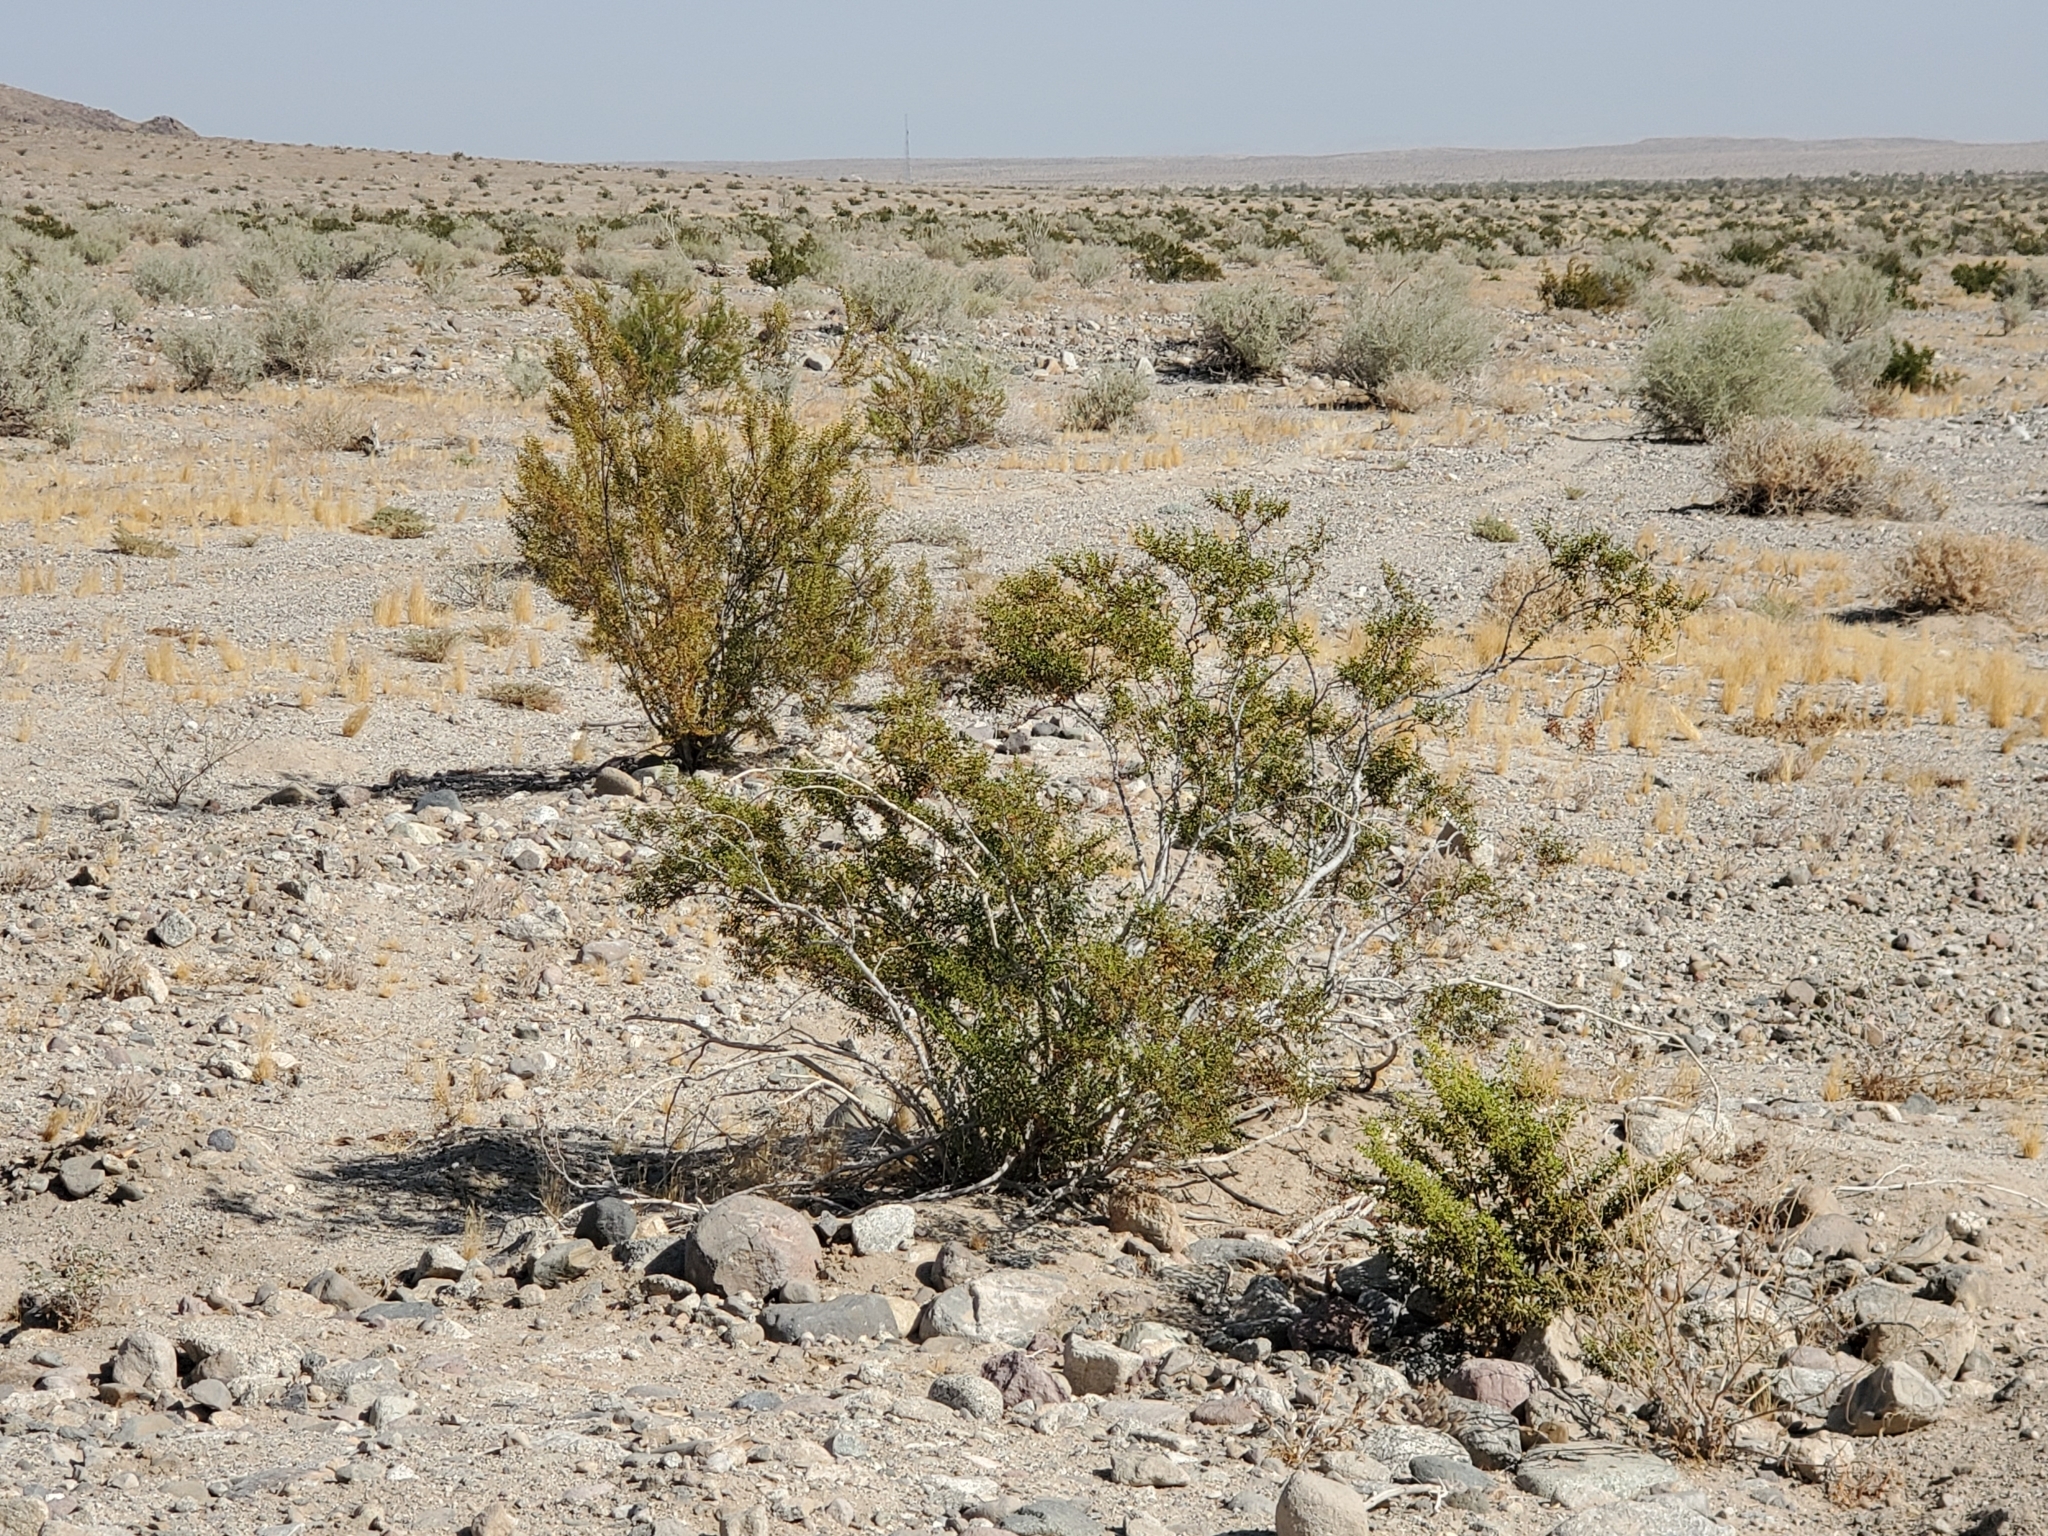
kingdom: Plantae
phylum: Tracheophyta
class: Magnoliopsida
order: Zygophyllales
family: Zygophyllaceae
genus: Larrea
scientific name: Larrea tridentata
